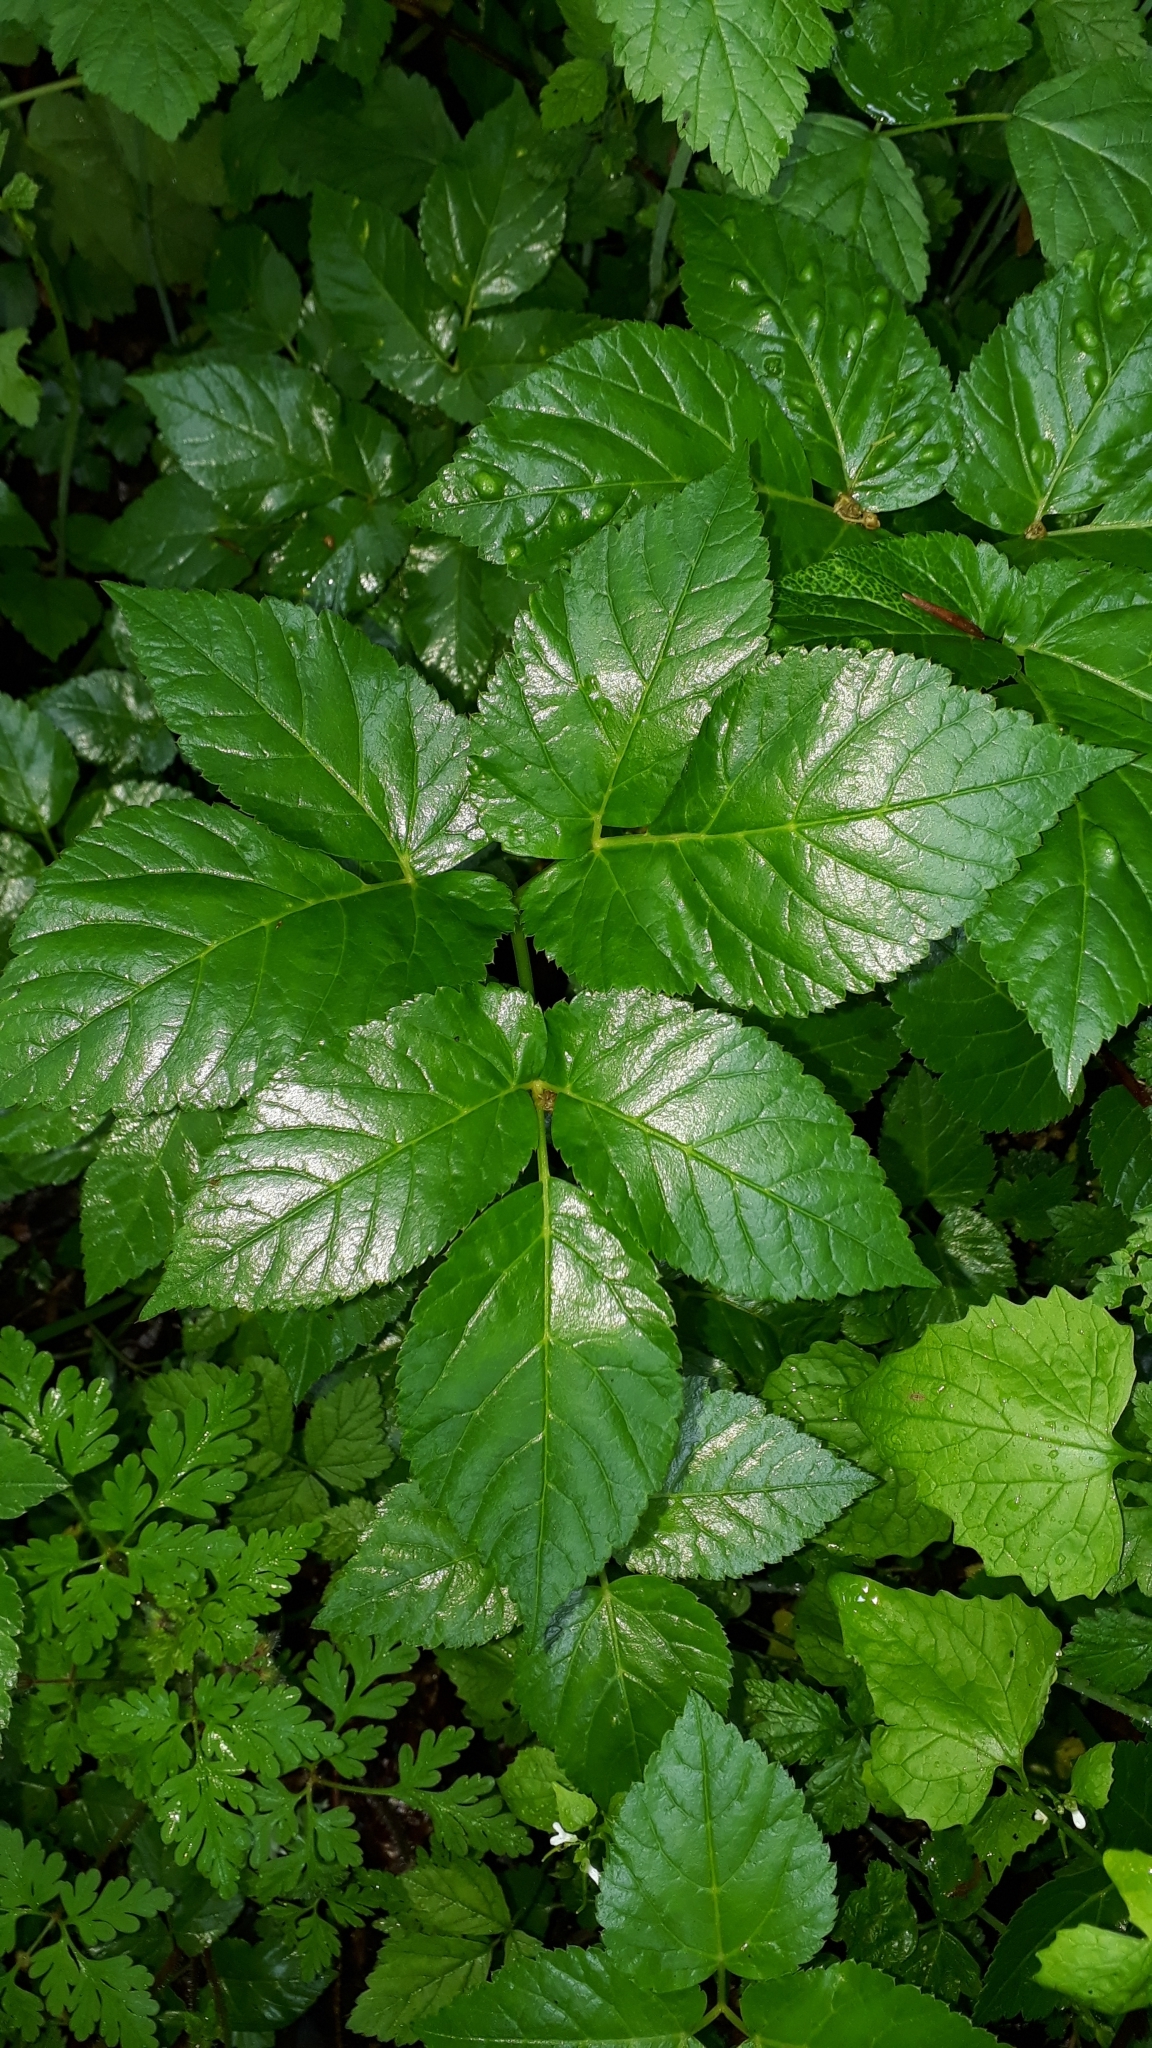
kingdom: Plantae
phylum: Tracheophyta
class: Magnoliopsida
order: Apiales
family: Apiaceae
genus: Aegopodium
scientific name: Aegopodium podagraria
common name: Ground-elder
